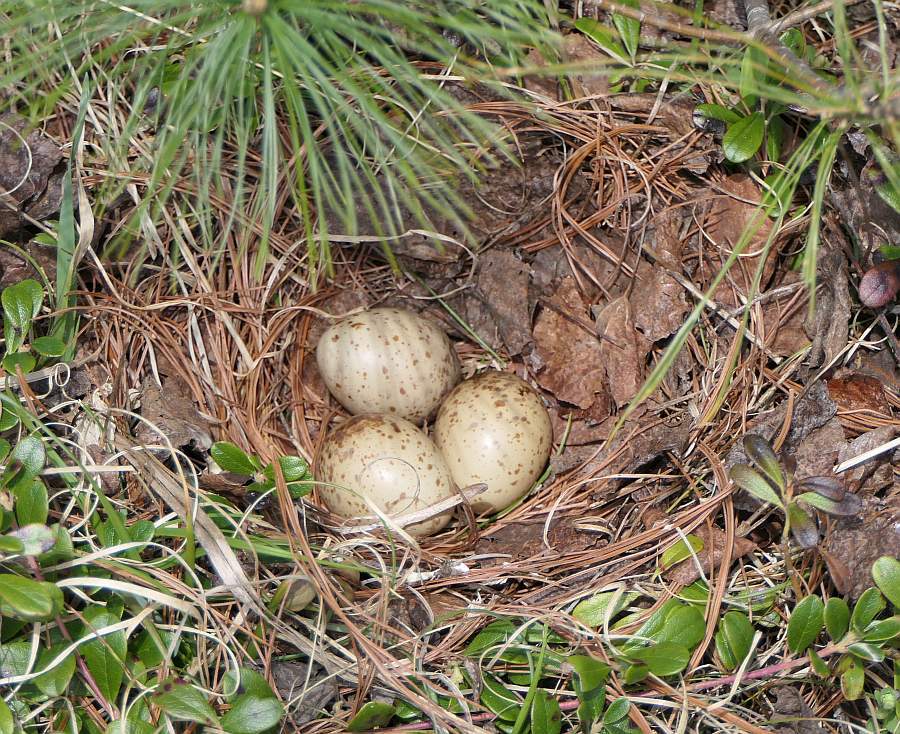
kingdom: Animalia
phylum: Chordata
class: Aves
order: Charadriiformes
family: Scolopacidae
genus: Scolopax
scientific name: Scolopax minor
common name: American woodcock
